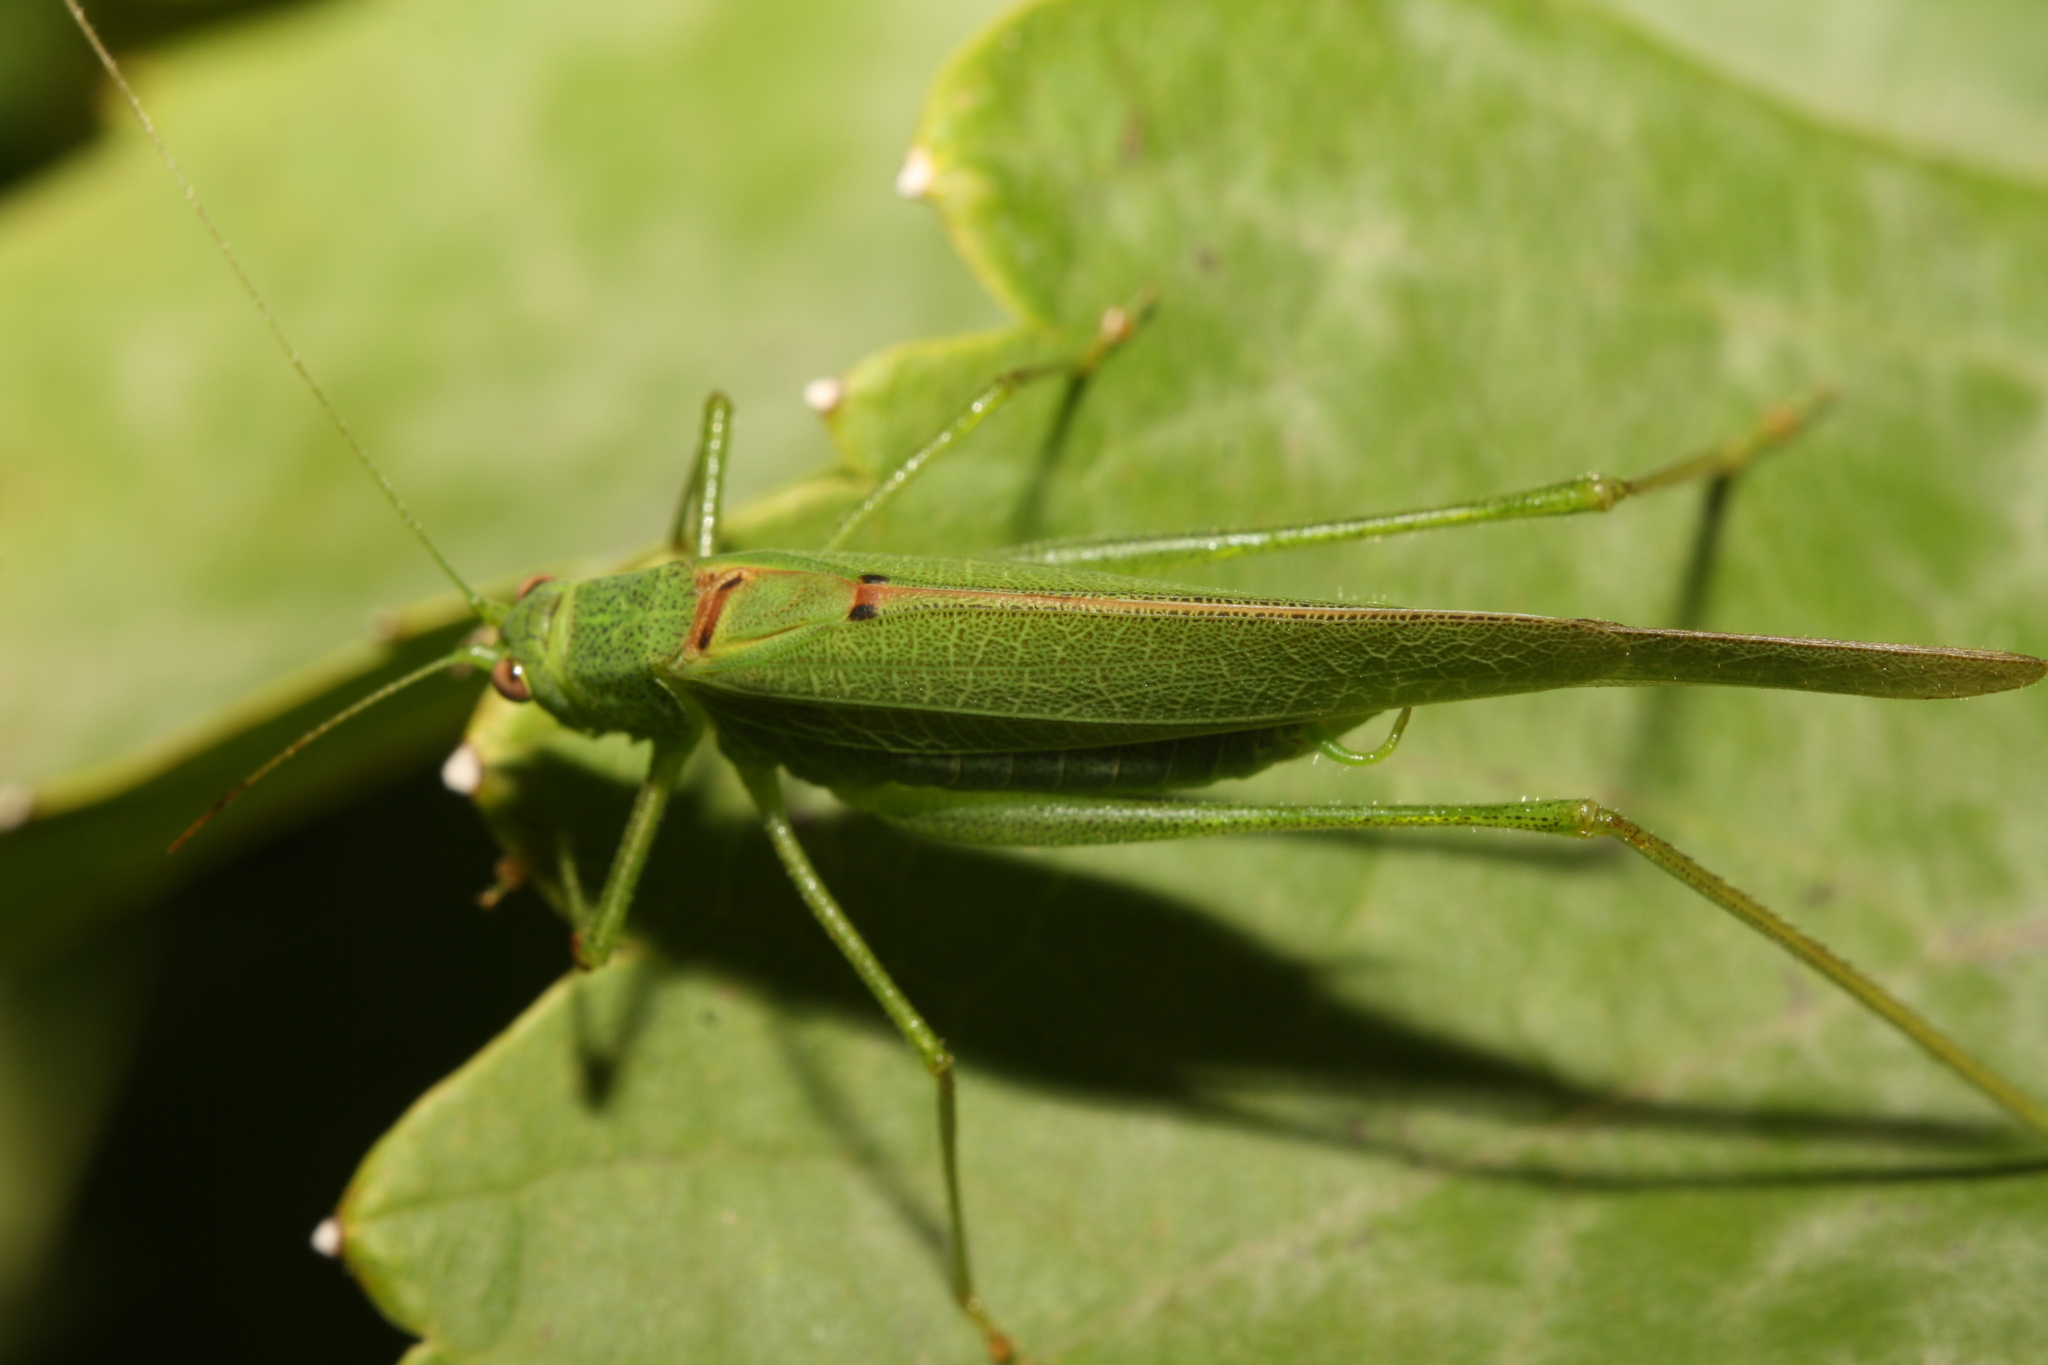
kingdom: Animalia
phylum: Arthropoda
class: Insecta
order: Orthoptera
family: Tettigoniidae
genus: Phaneroptera
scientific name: Phaneroptera nana
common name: Southern sickle bush-cricket
